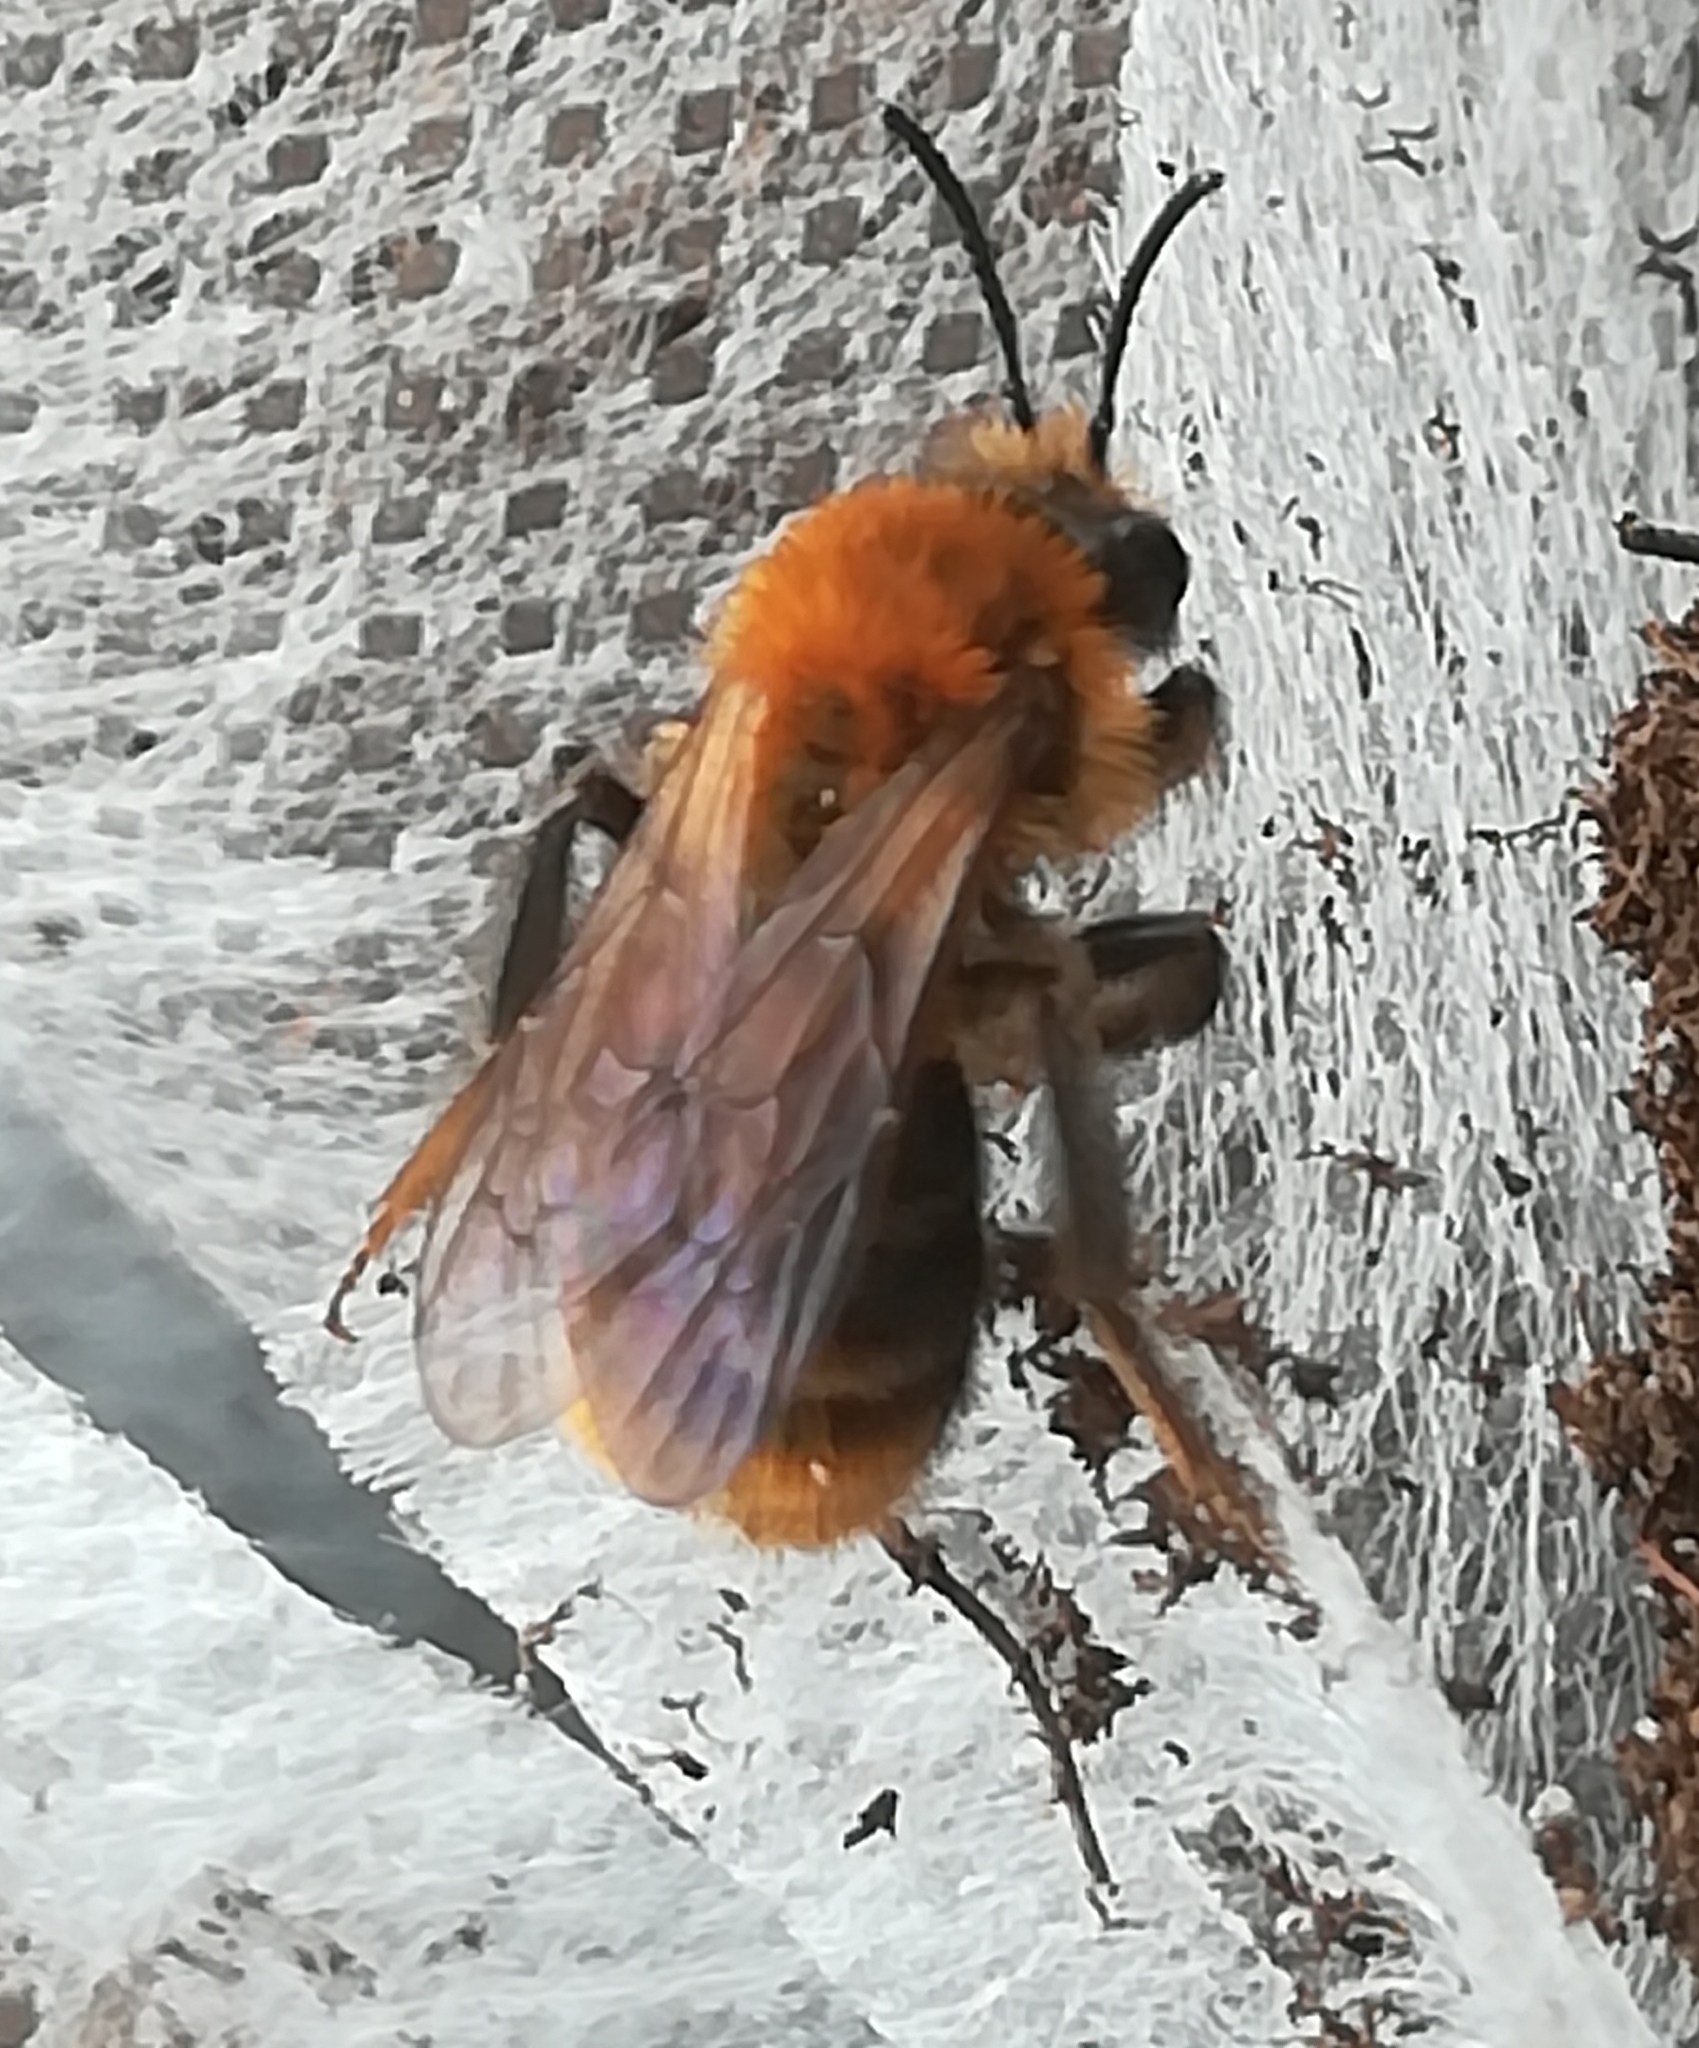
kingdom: Animalia
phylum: Arthropoda
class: Insecta
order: Hymenoptera
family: Andrenidae
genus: Andrena
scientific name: Andrena milwaukeensis
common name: Milwaukee mining bee
